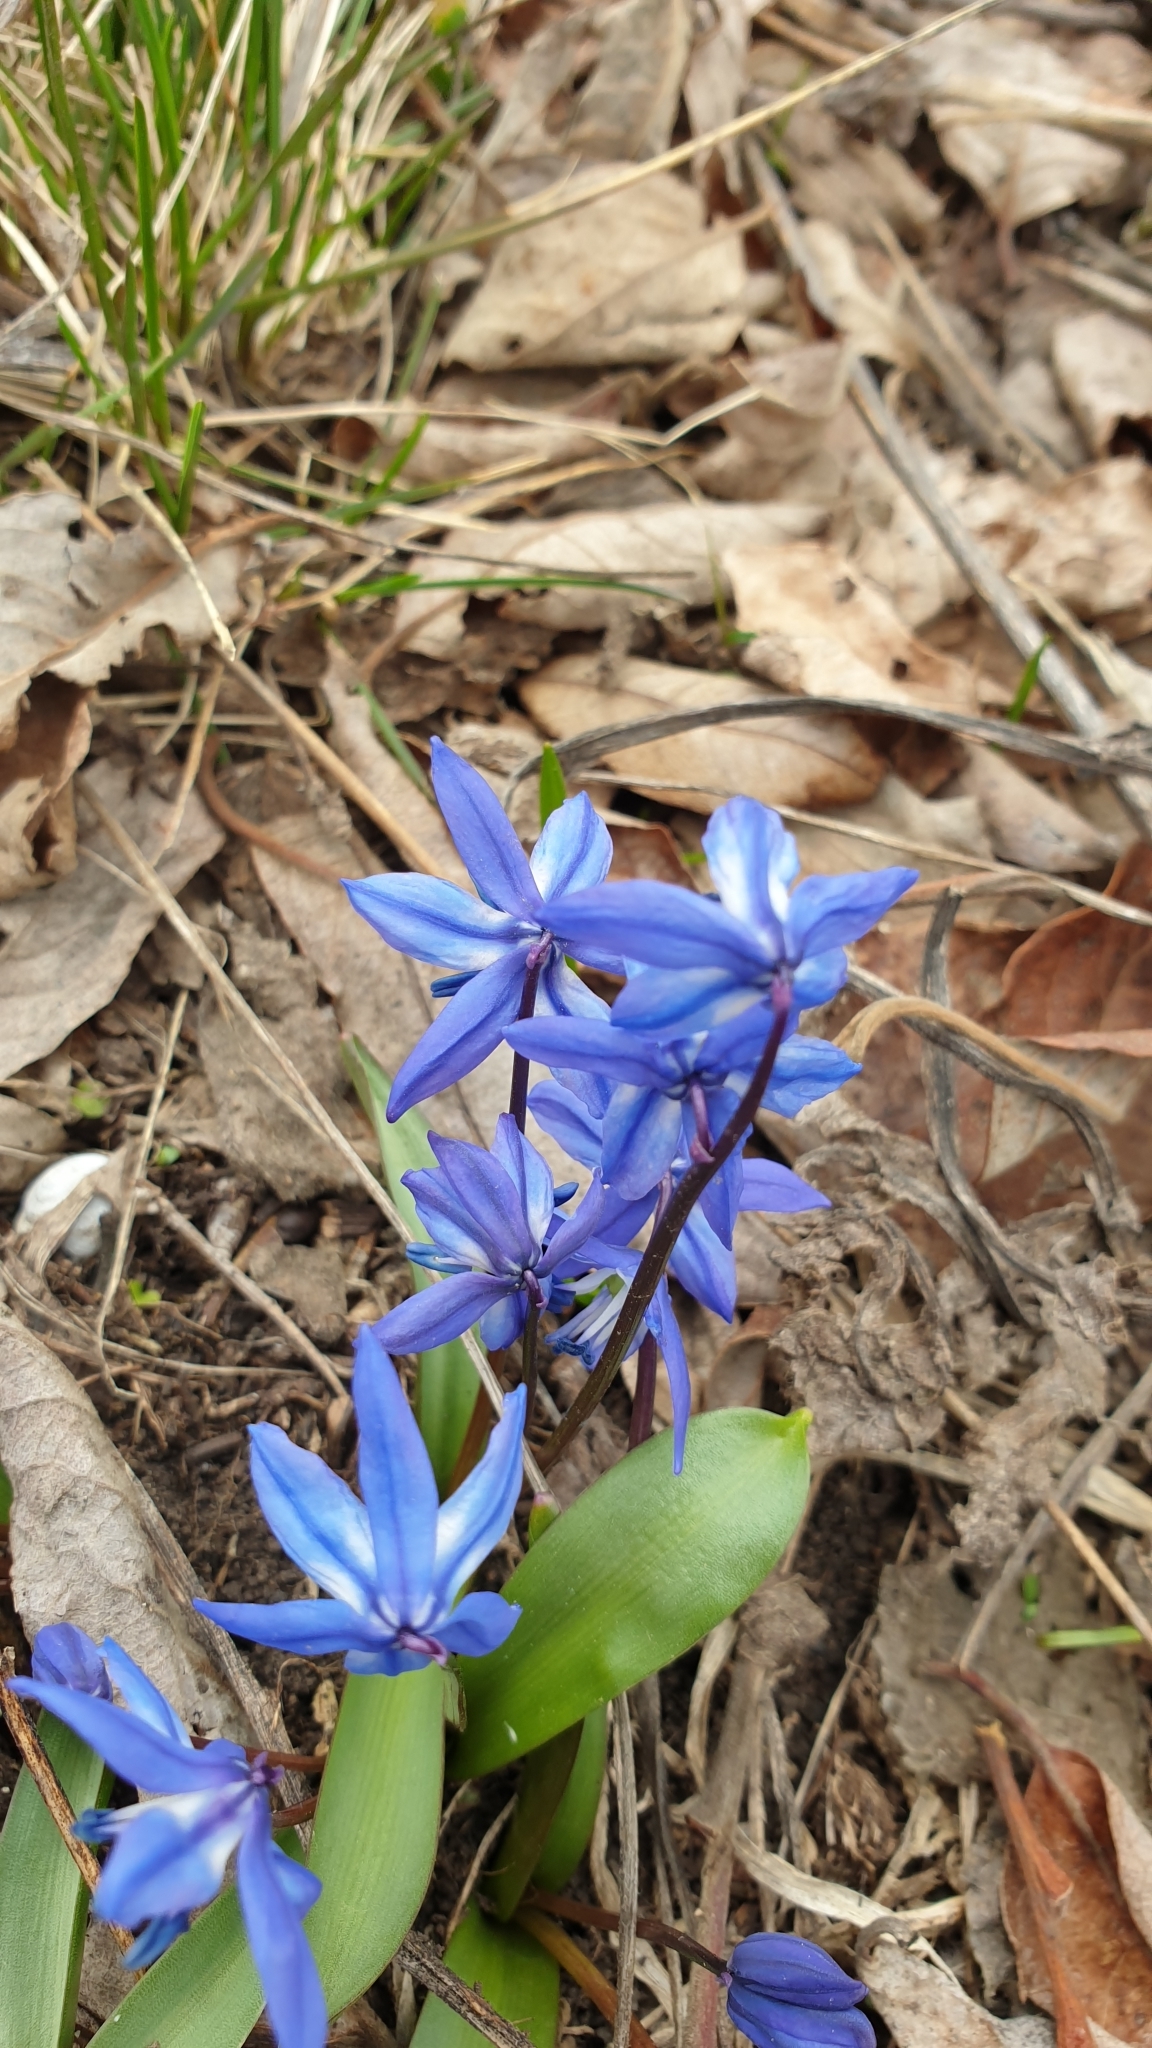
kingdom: Plantae
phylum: Tracheophyta
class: Liliopsida
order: Asparagales
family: Asparagaceae
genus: Scilla
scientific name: Scilla siberica
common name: Siberian squill
